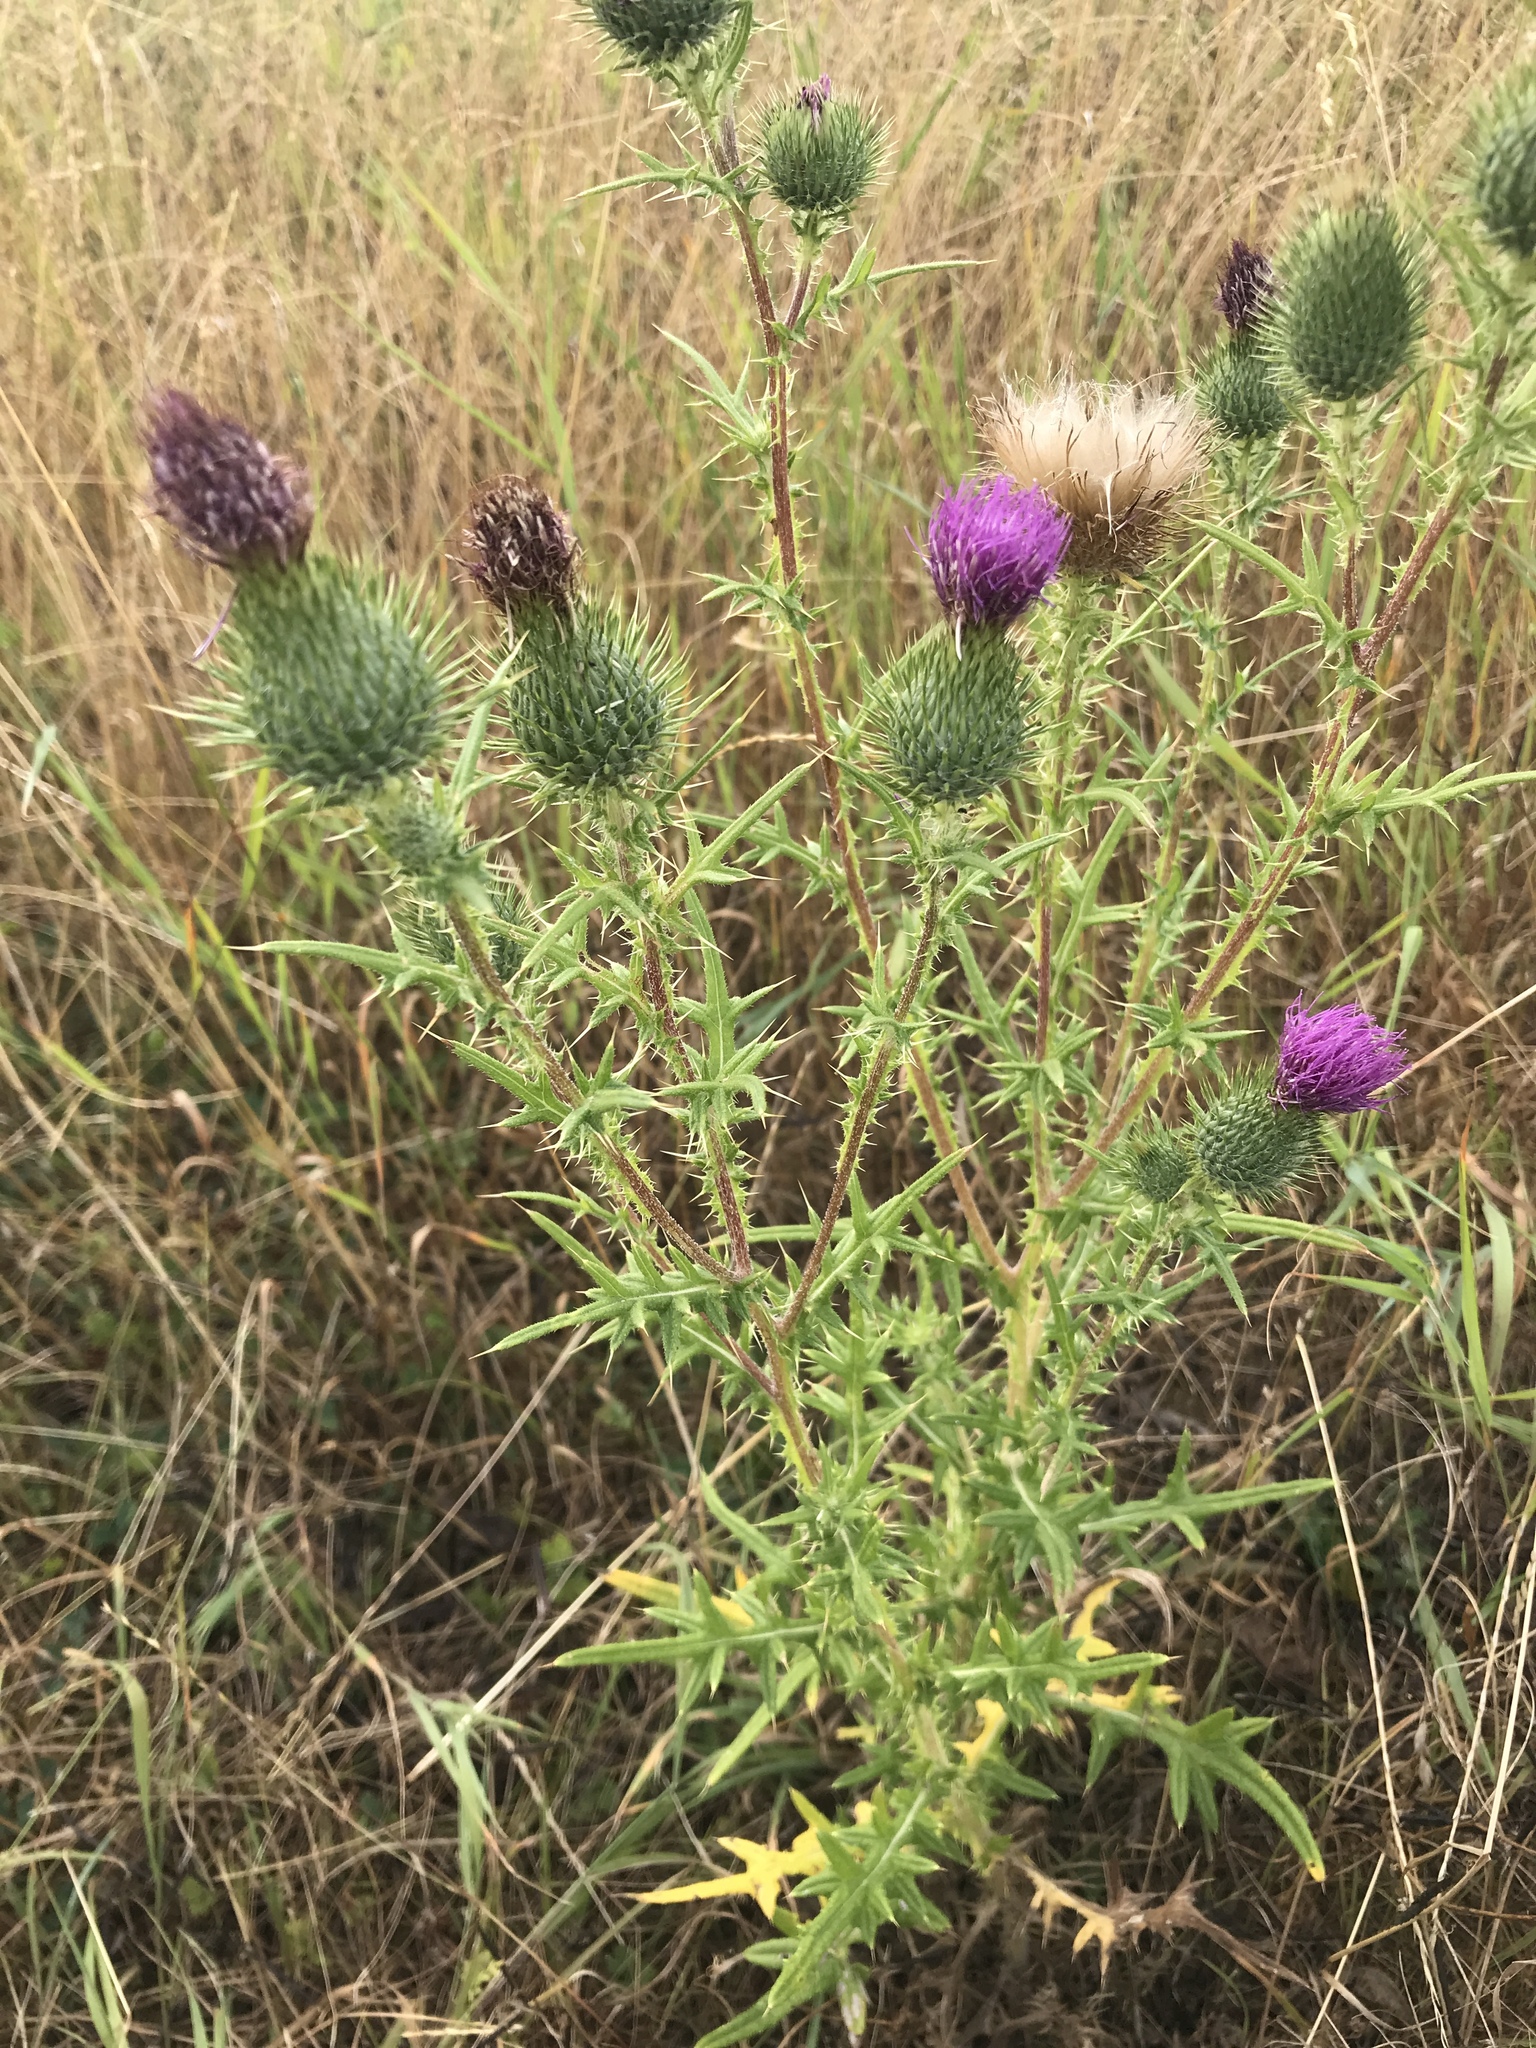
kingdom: Plantae
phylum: Tracheophyta
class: Magnoliopsida
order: Asterales
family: Asteraceae
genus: Cirsium
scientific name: Cirsium vulgare
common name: Bull thistle
